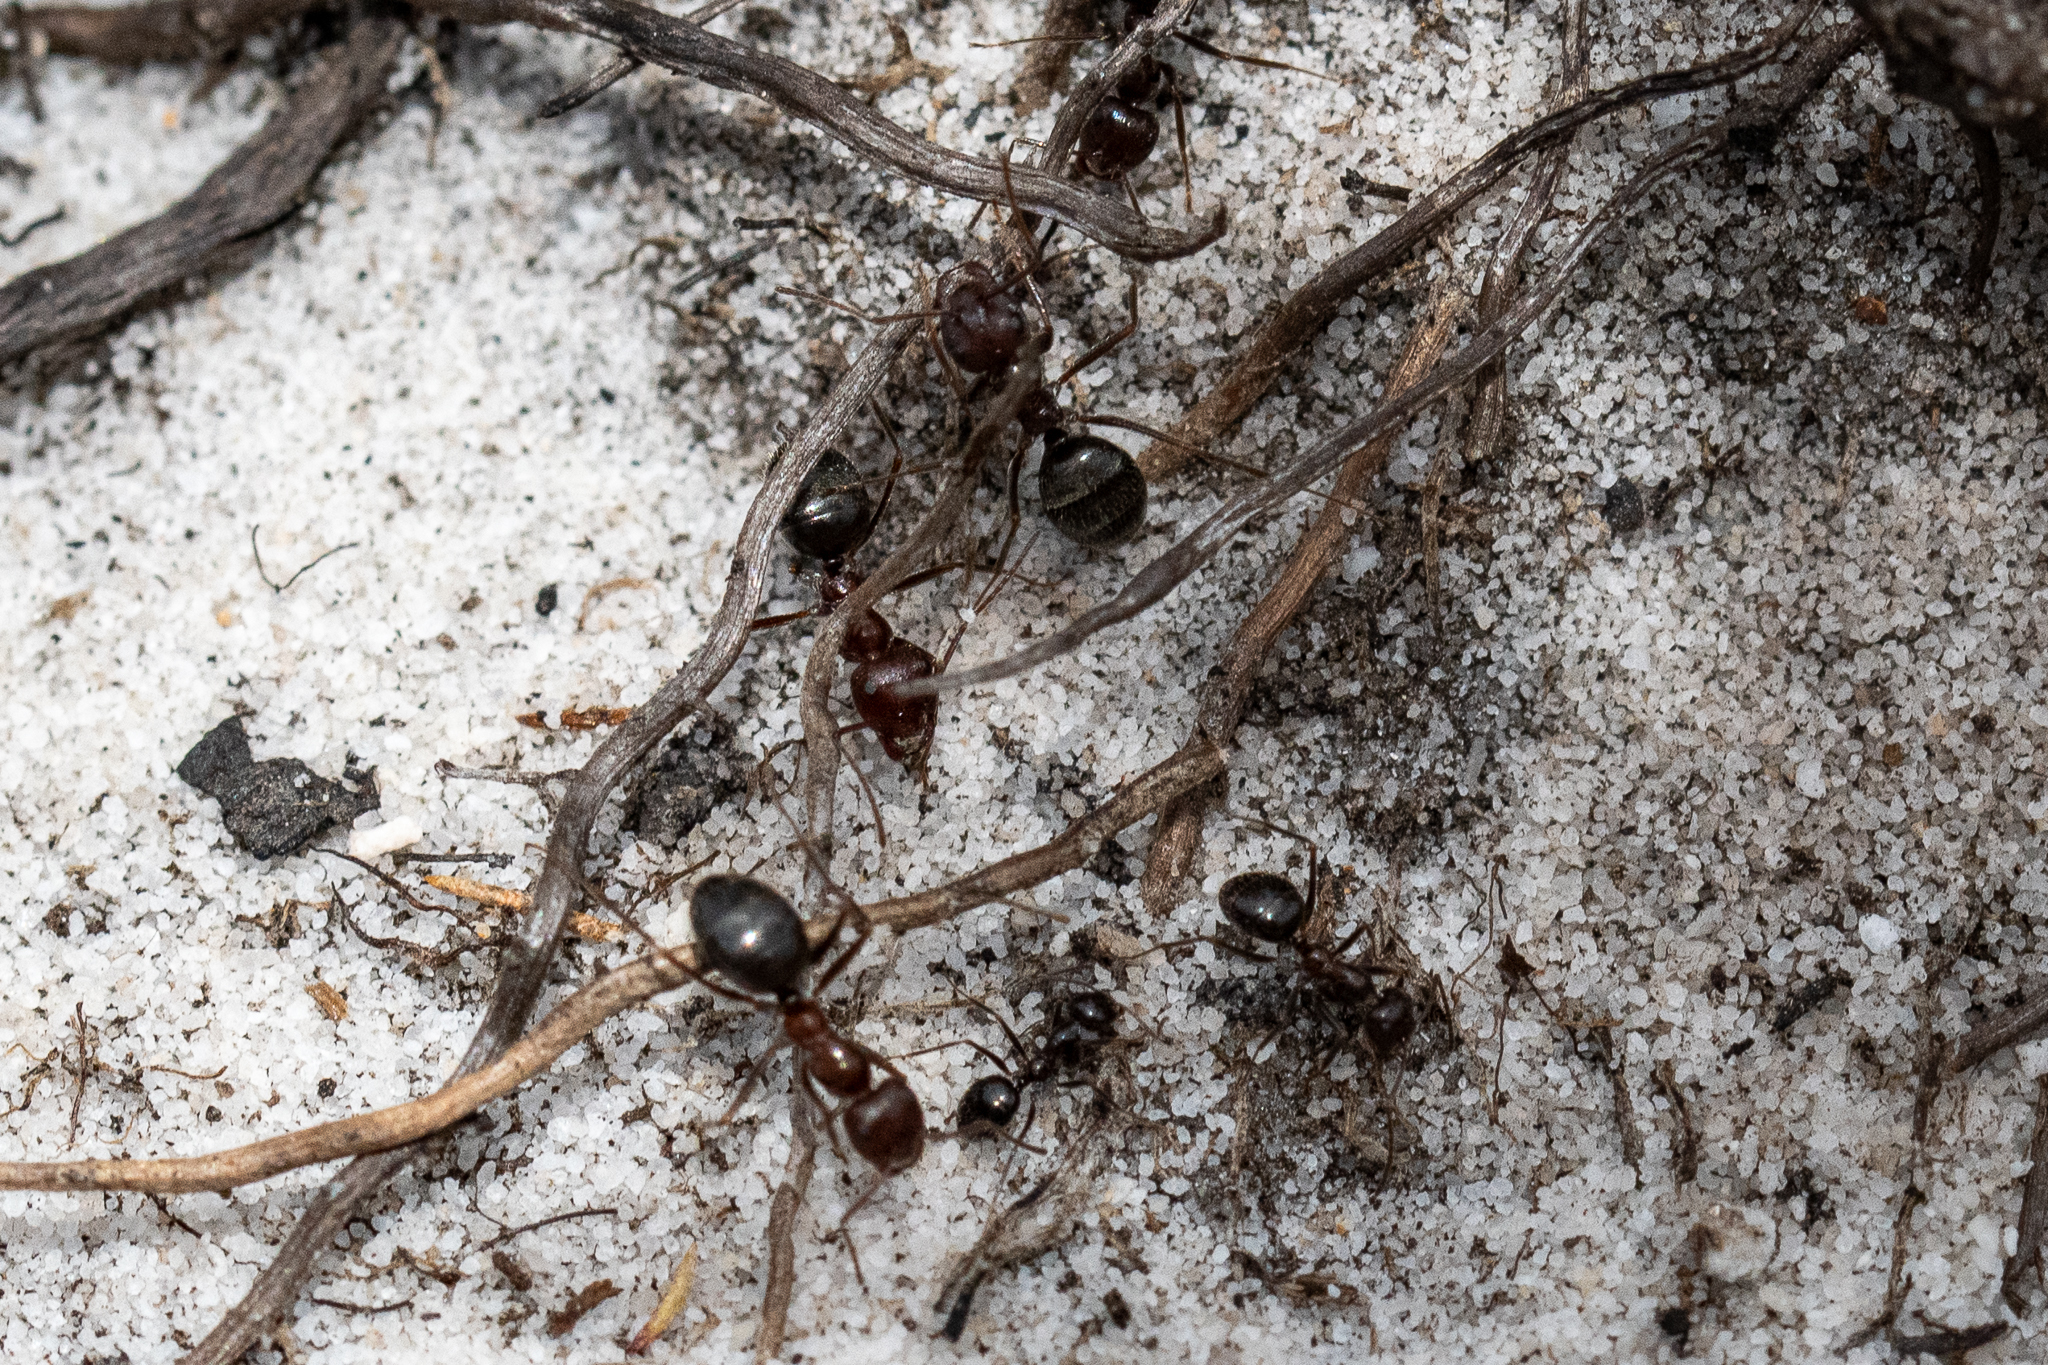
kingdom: Animalia
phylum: Arthropoda
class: Insecta
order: Hymenoptera
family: Formicidae
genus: Anoplolepis
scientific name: Anoplolepis steingroeveri
